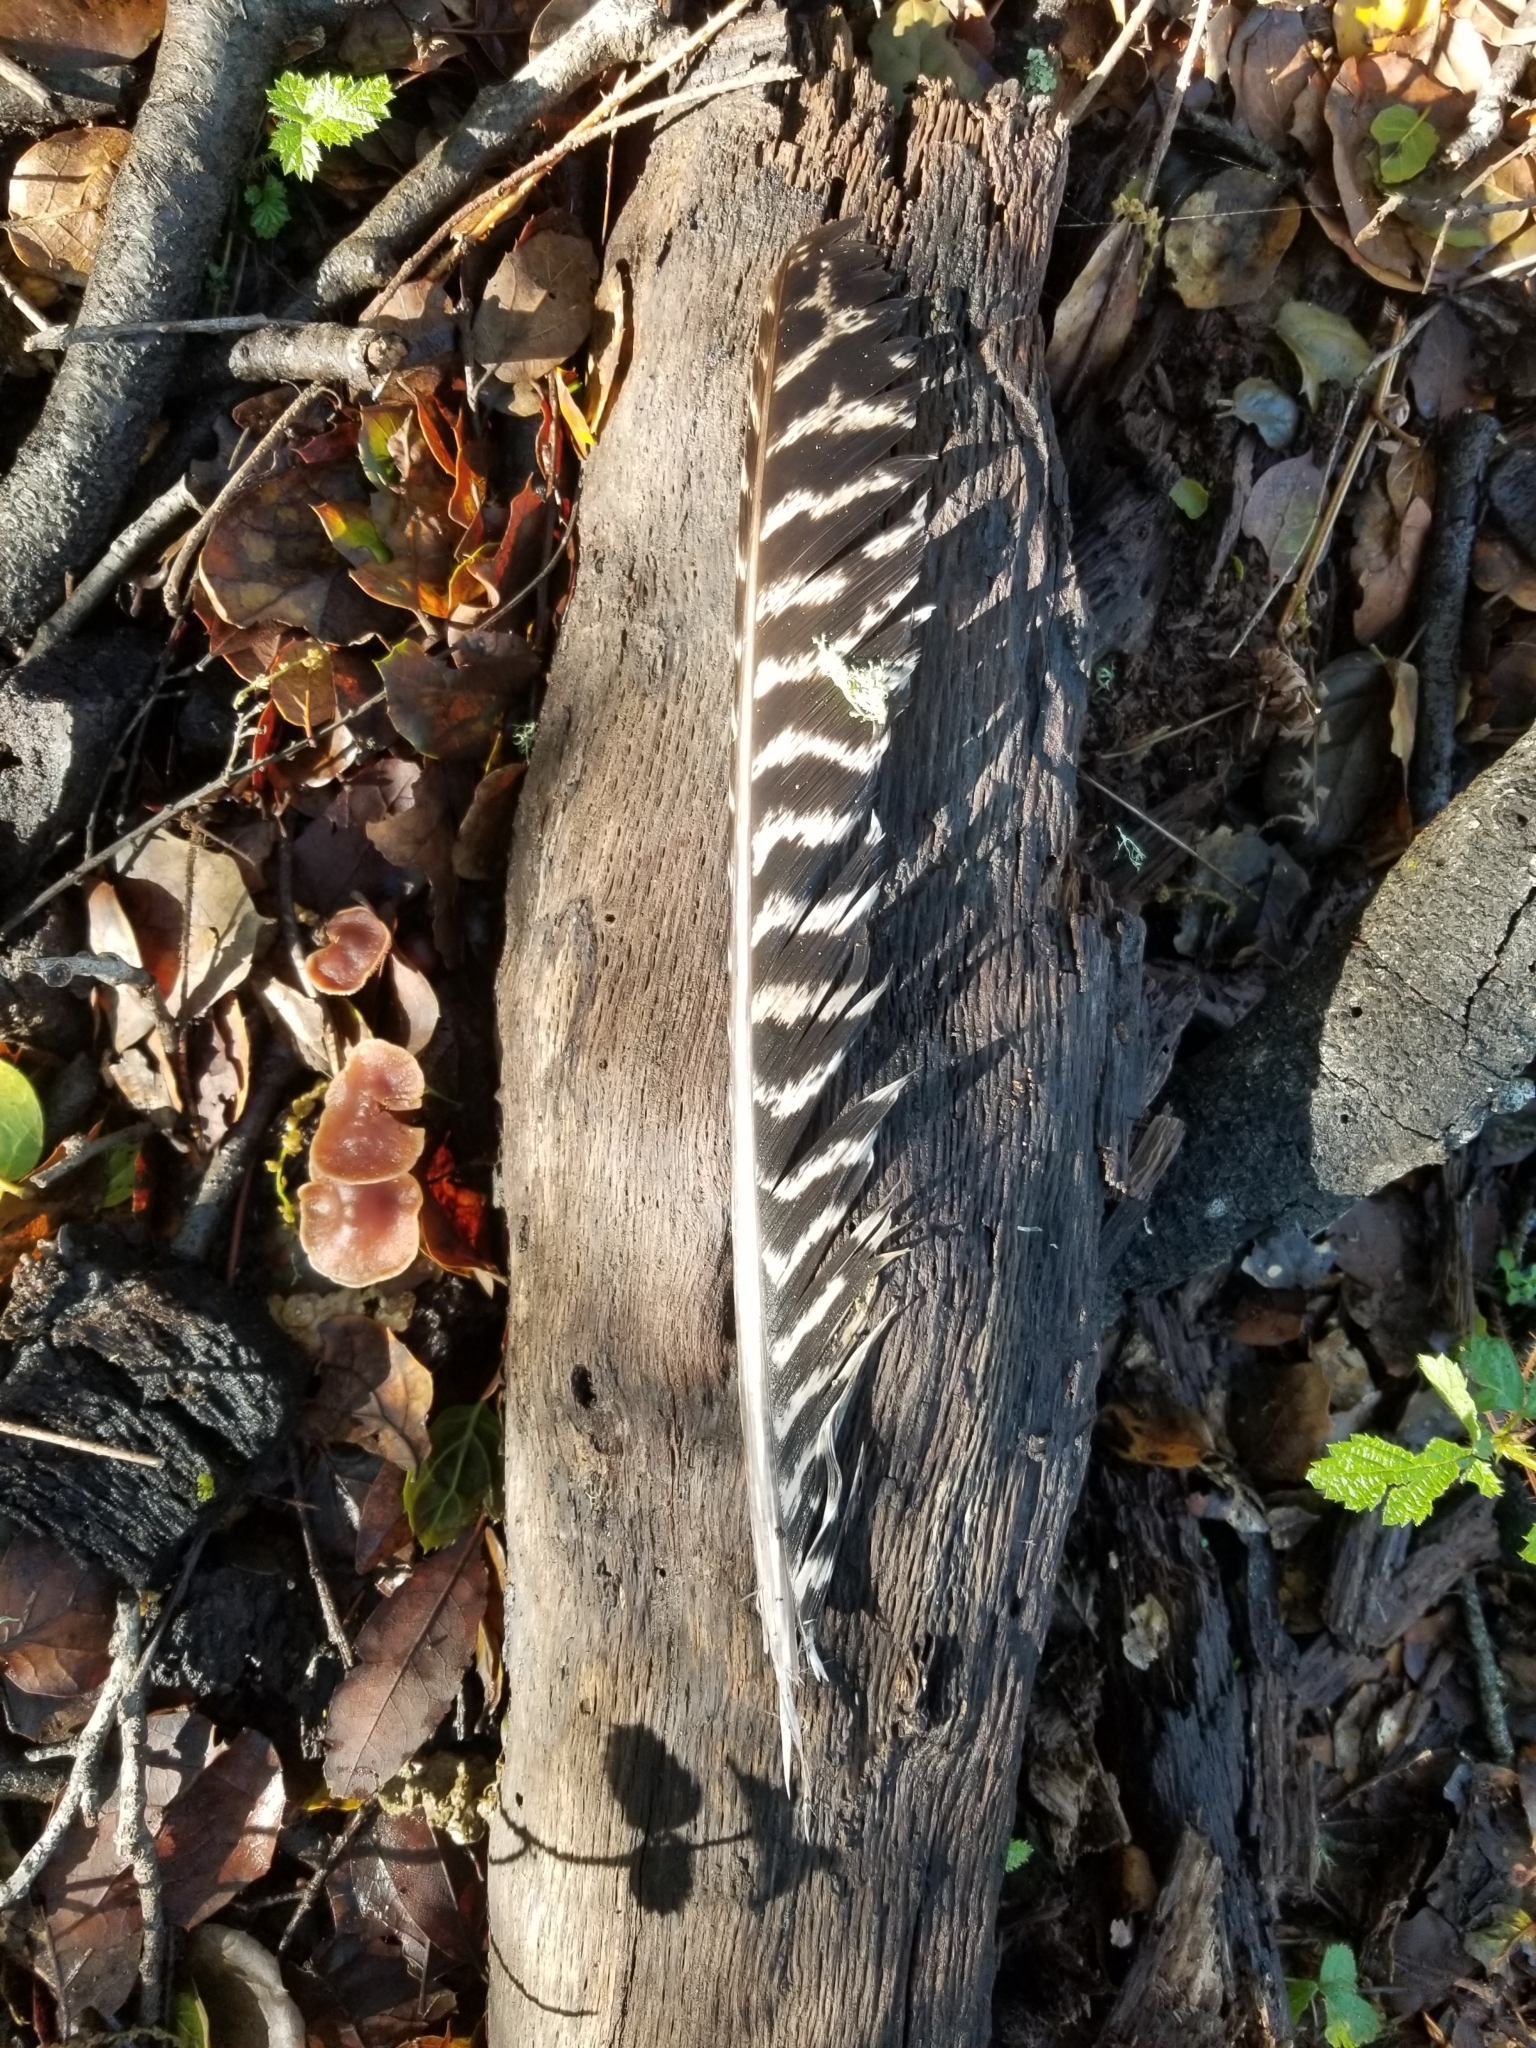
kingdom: Animalia
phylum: Chordata
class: Aves
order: Galliformes
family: Phasianidae
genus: Meleagris
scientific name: Meleagris gallopavo
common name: Wild turkey
